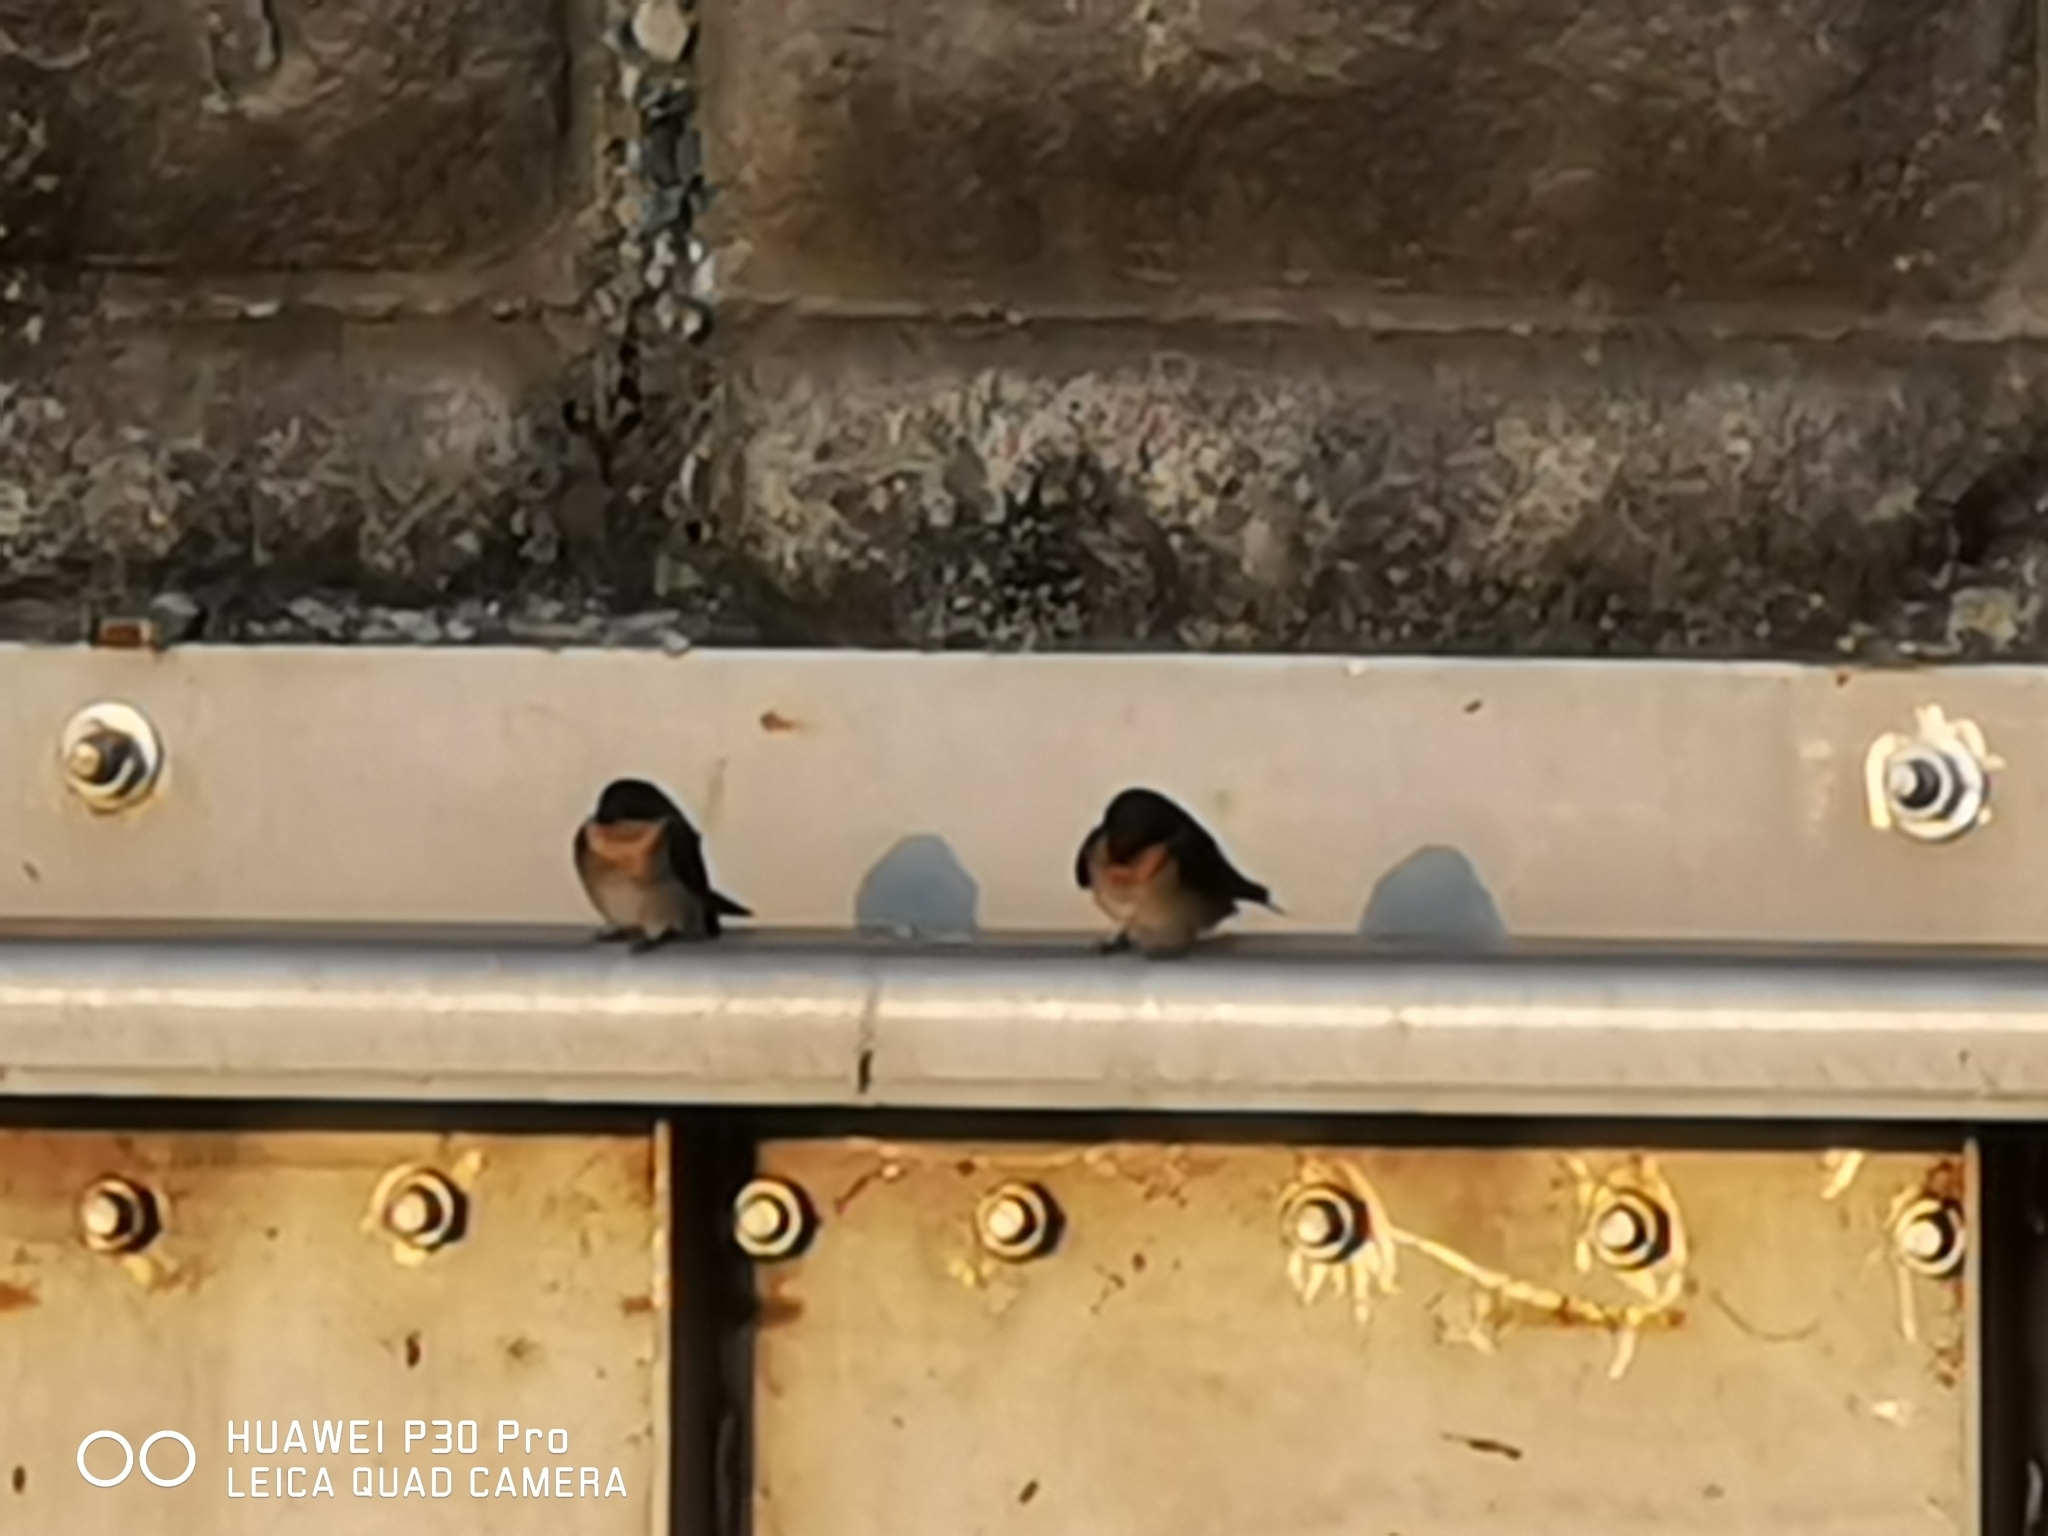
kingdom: Animalia
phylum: Chordata
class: Aves
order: Passeriformes
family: Hirundinidae
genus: Hirundo
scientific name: Hirundo tahitica
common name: Pacific swallow
